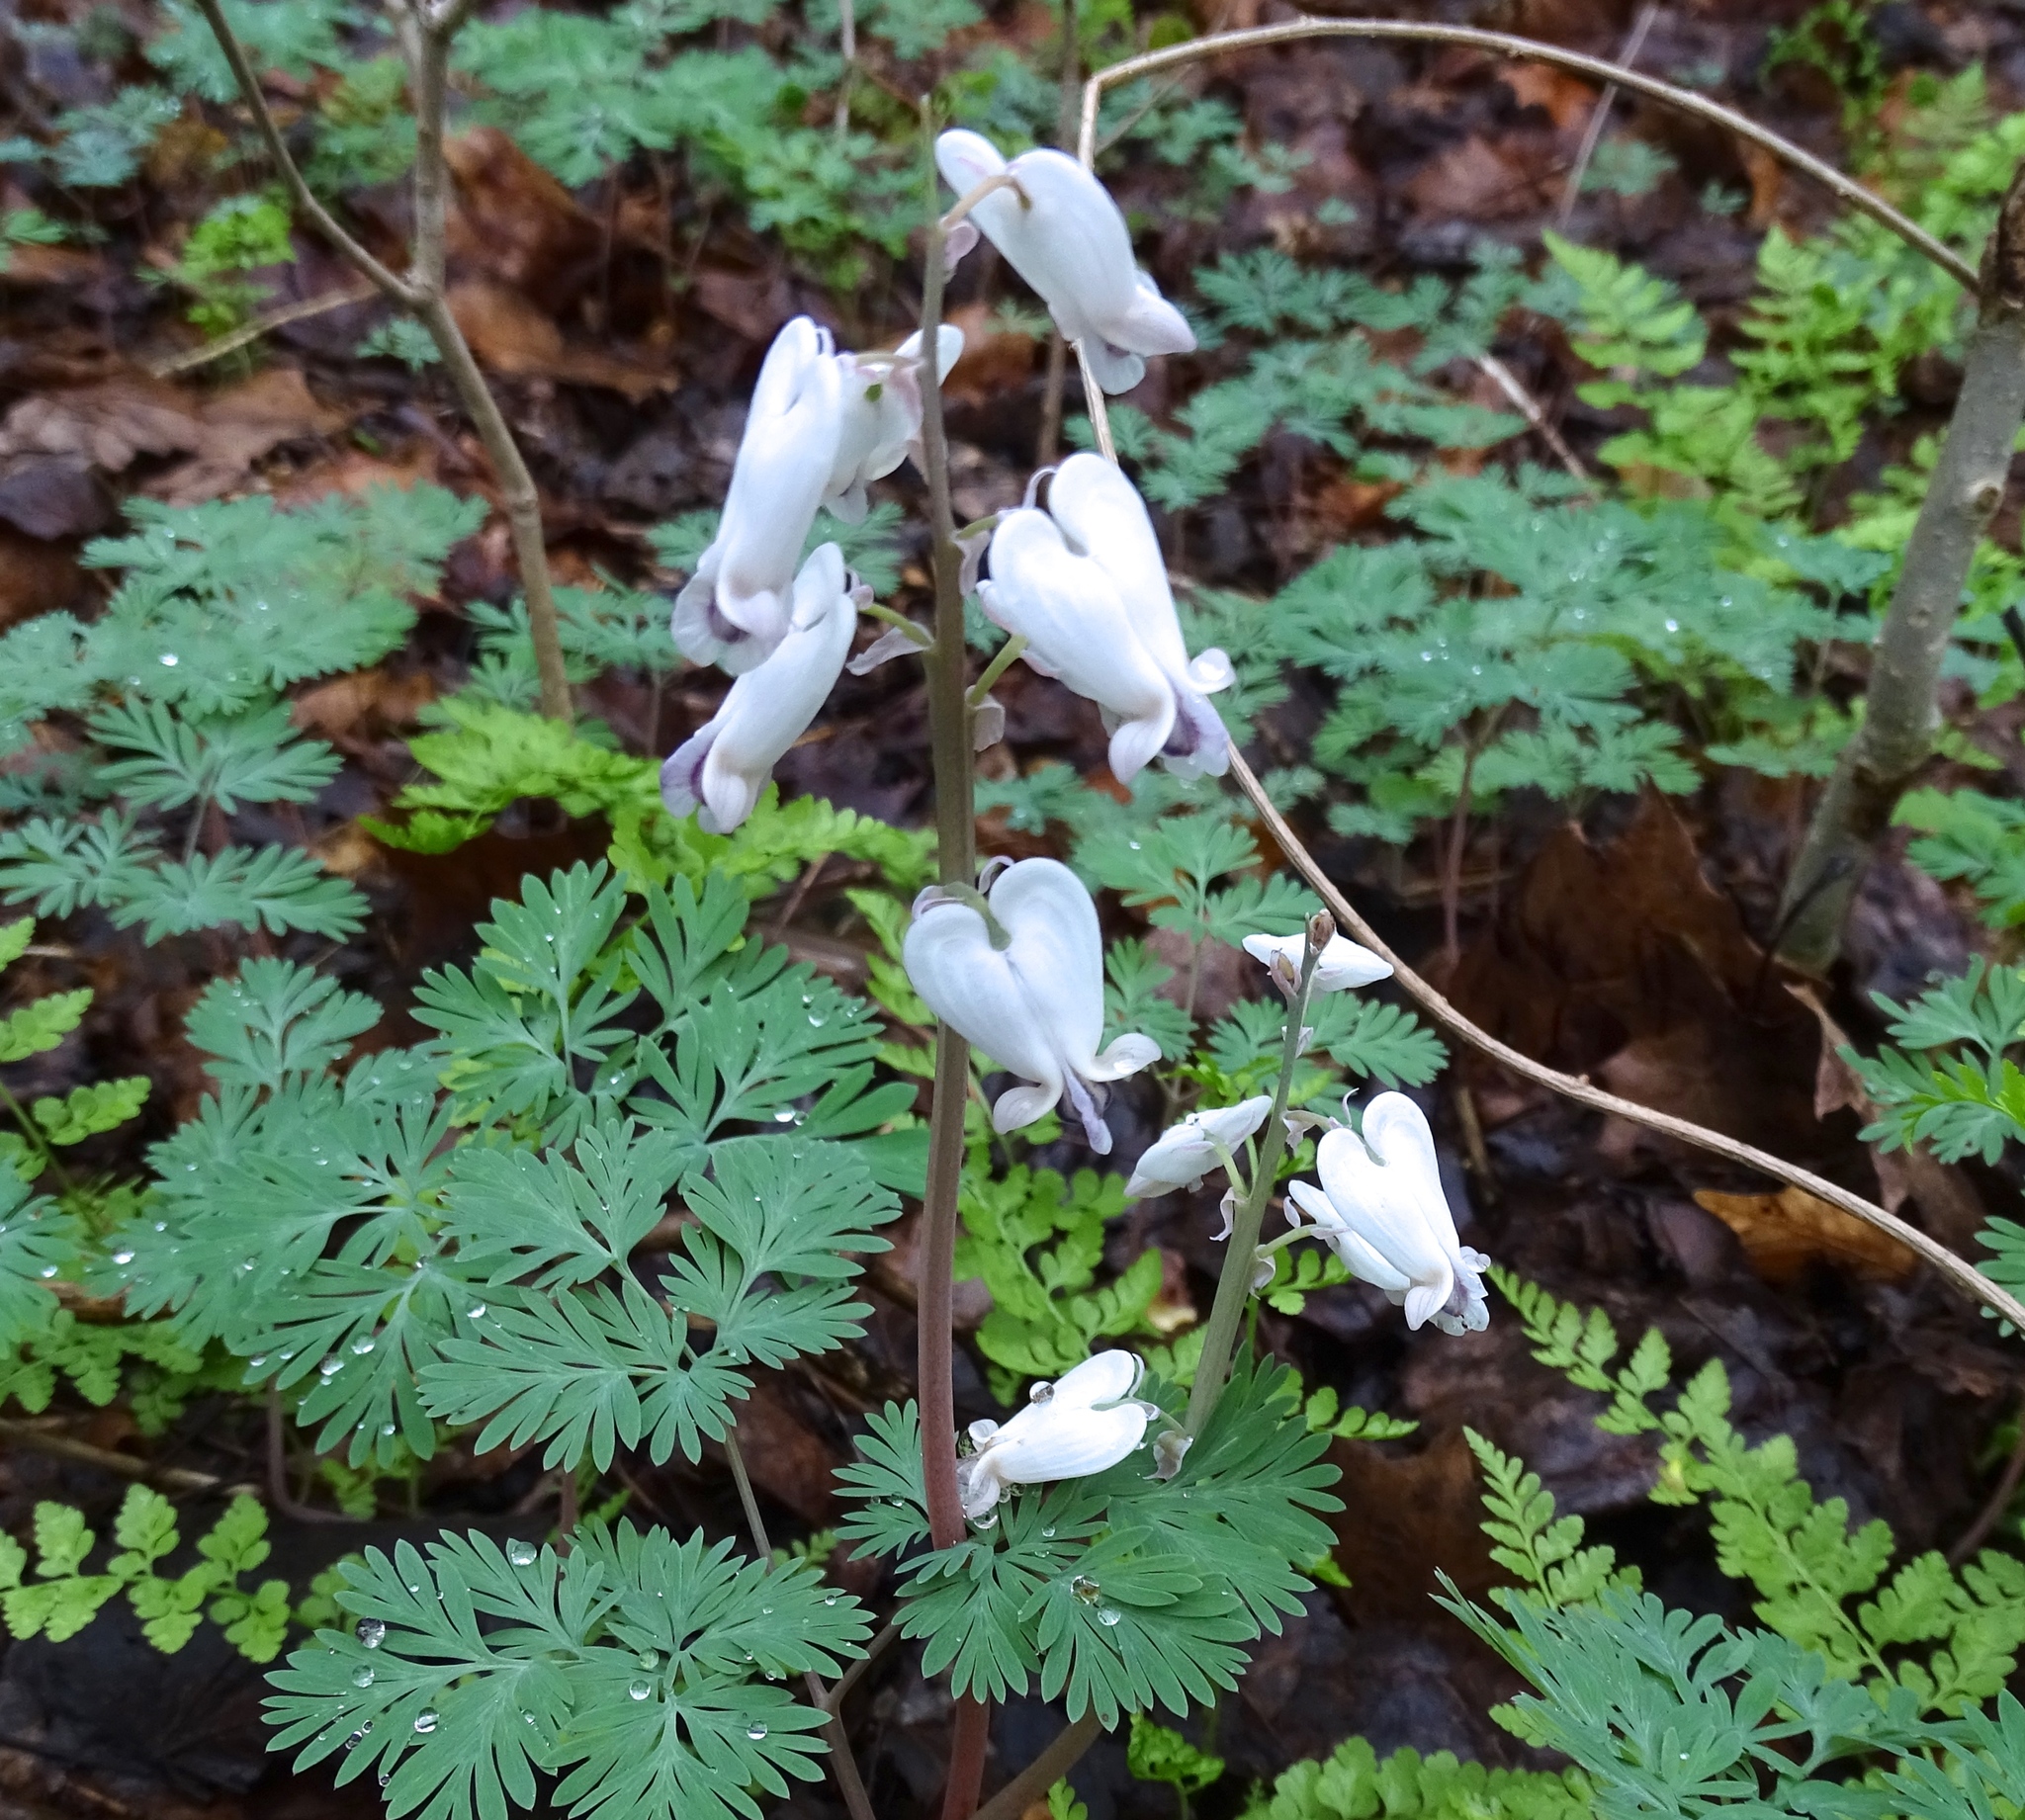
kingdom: Plantae
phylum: Tracheophyta
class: Magnoliopsida
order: Ranunculales
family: Papaveraceae
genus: Dicentra
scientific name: Dicentra canadensis
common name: Squirrel-corn
